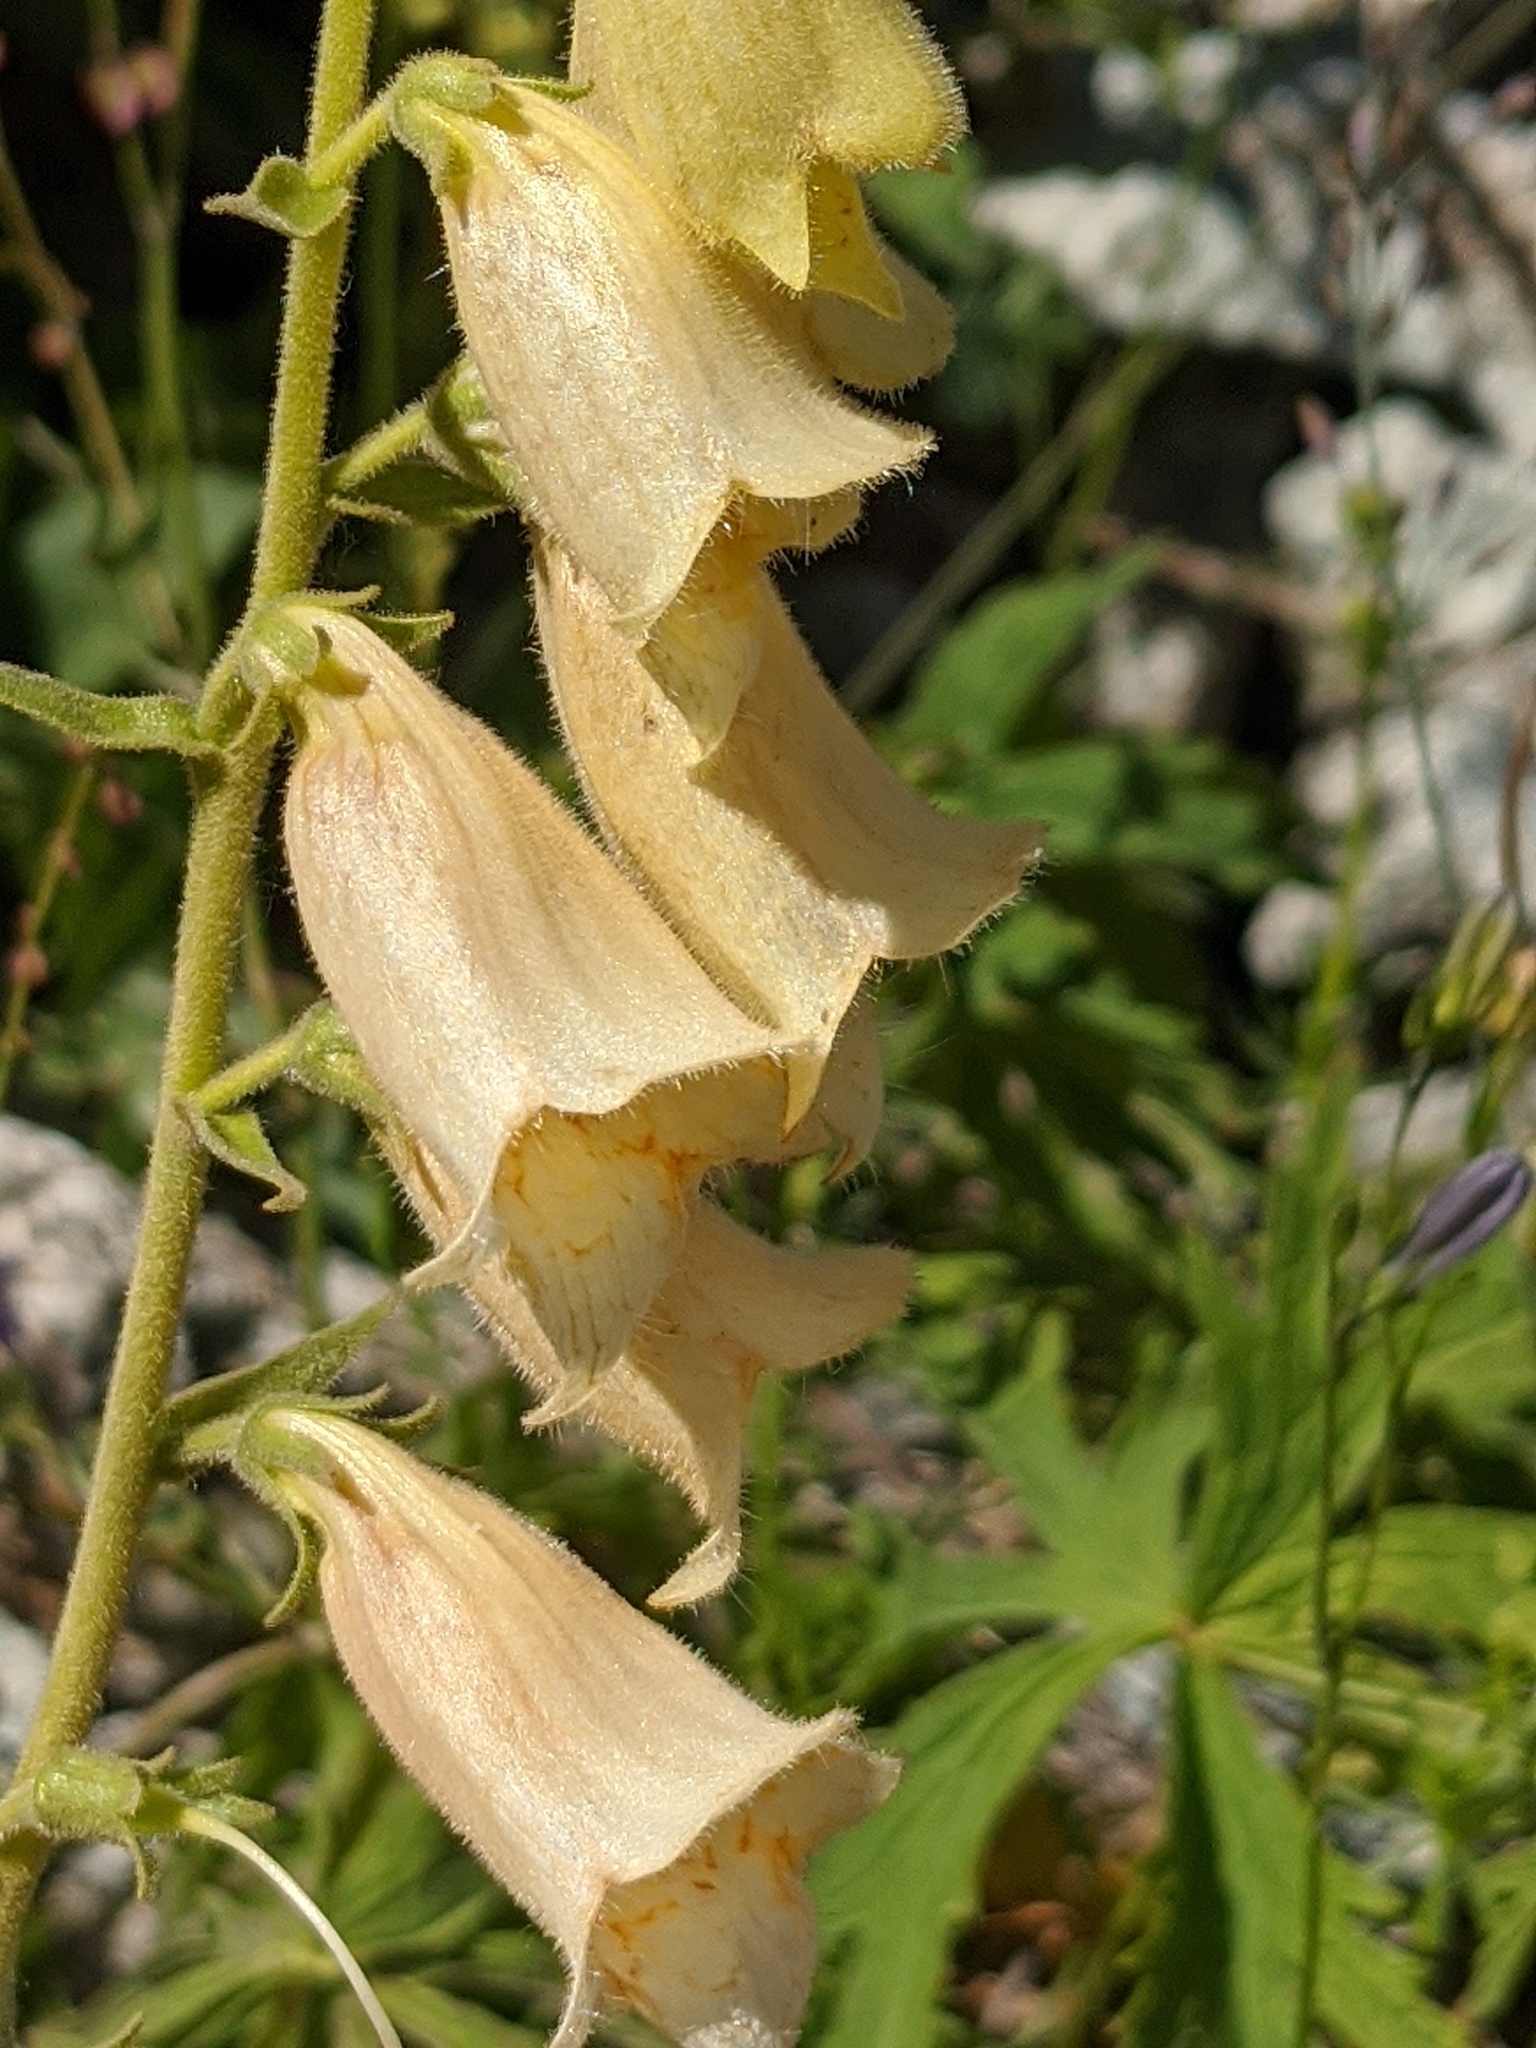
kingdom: Plantae
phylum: Tracheophyta
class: Magnoliopsida
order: Lamiales
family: Plantaginaceae
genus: Digitalis
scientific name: Digitalis grandiflora
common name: Yellow foxglove
